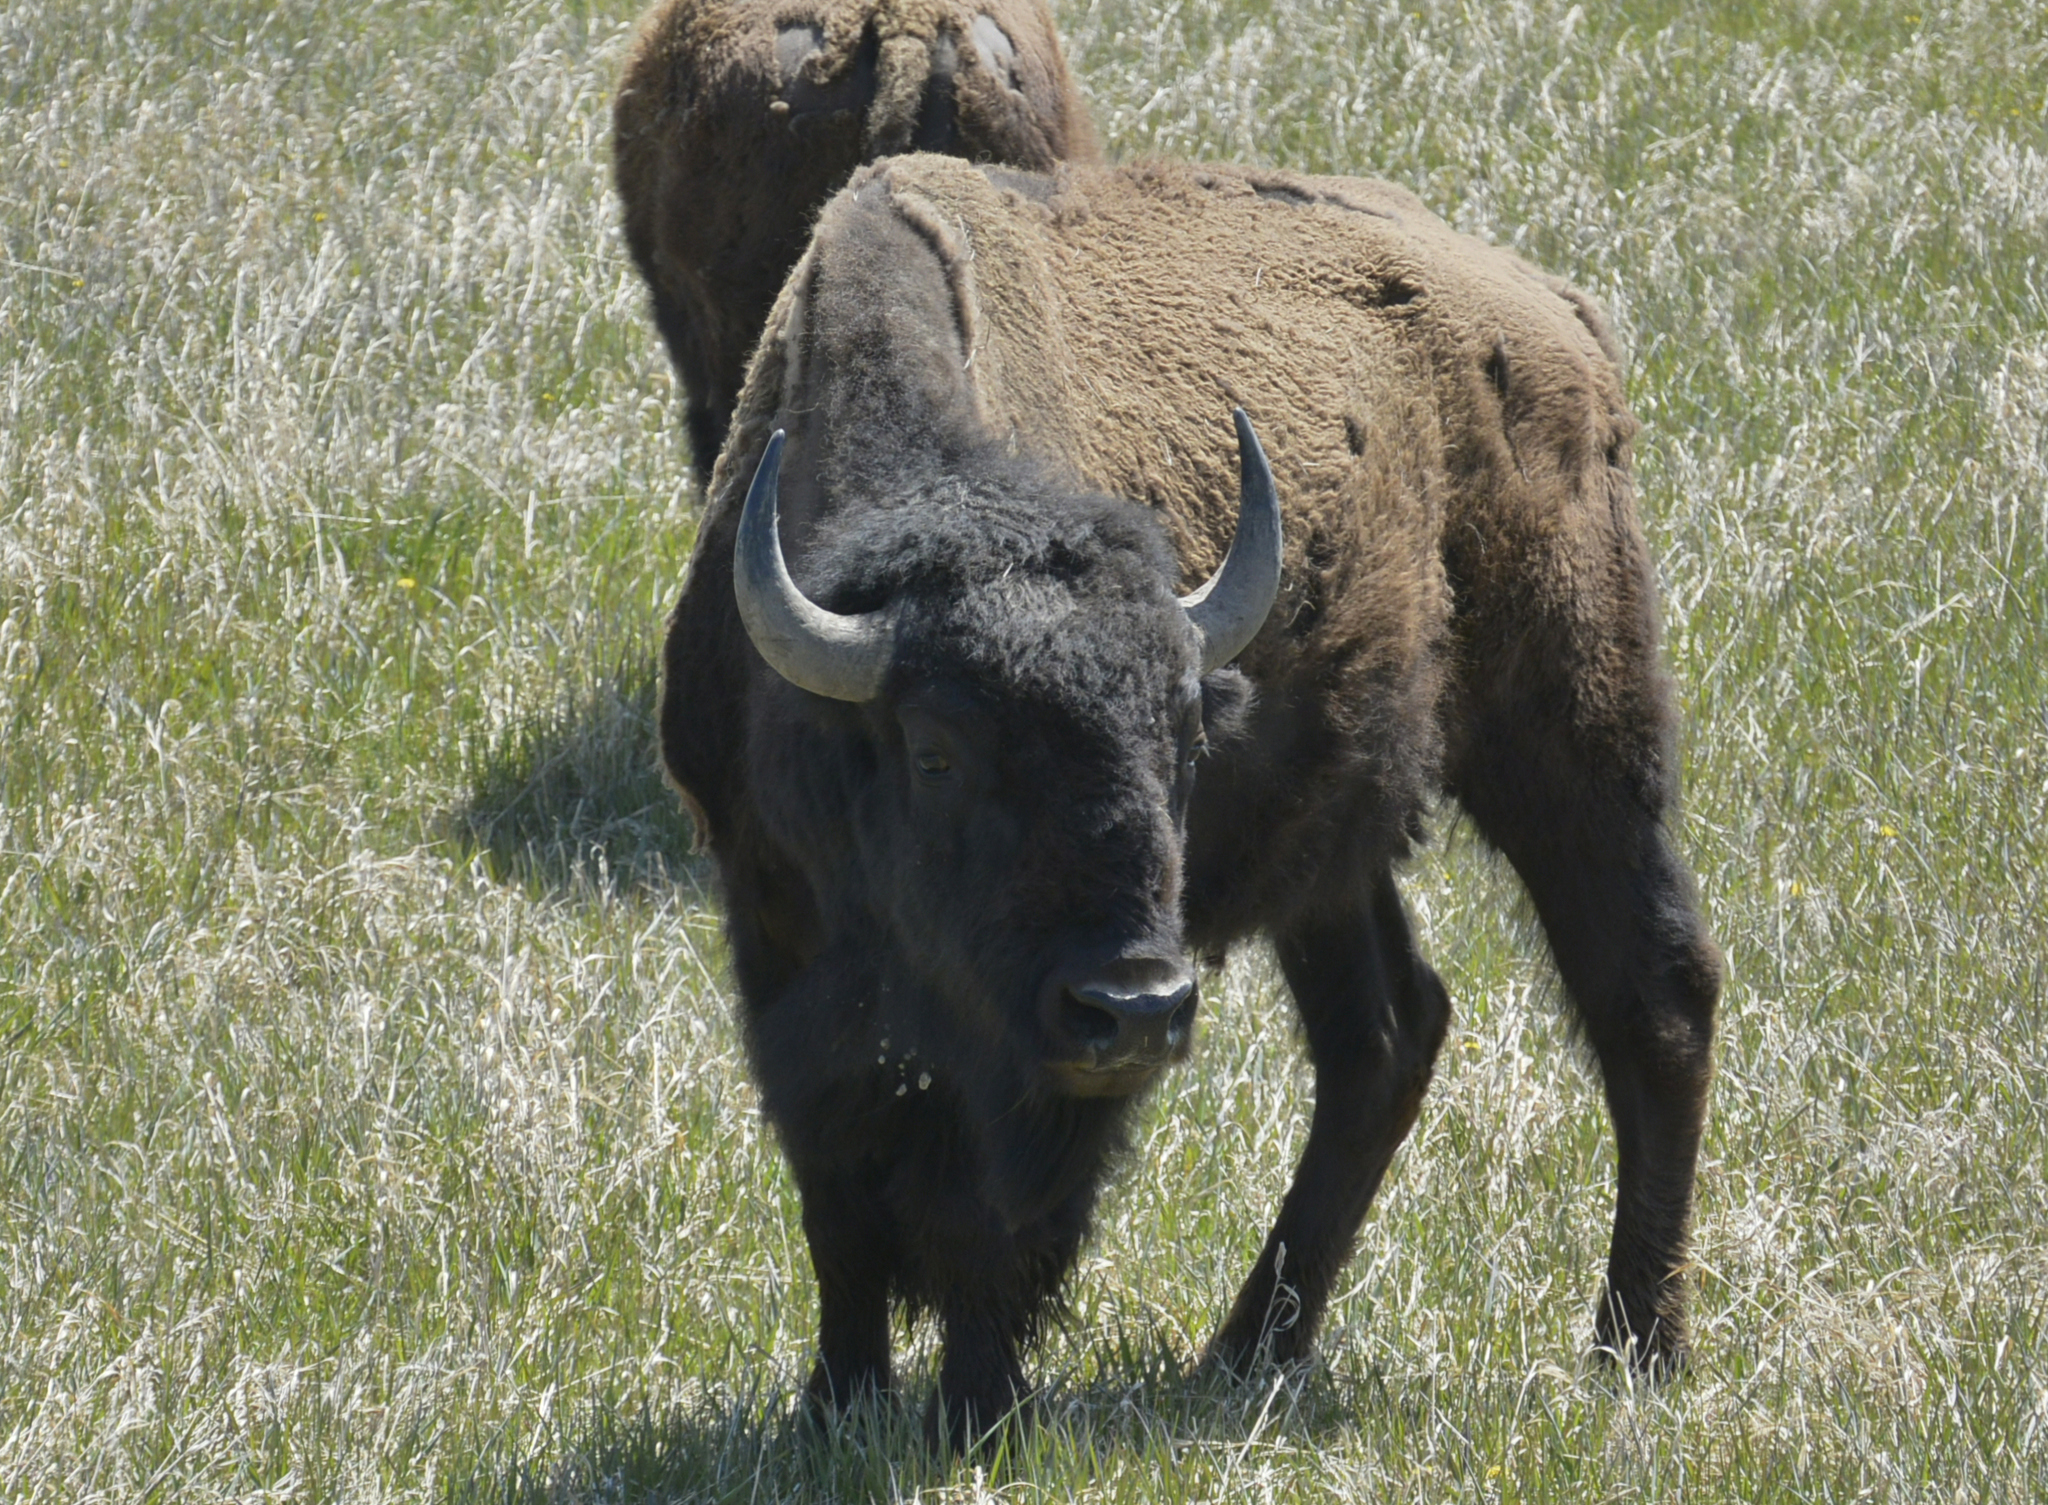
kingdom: Animalia
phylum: Chordata
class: Mammalia
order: Artiodactyla
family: Bovidae
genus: Bison
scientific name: Bison bison
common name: American bison
